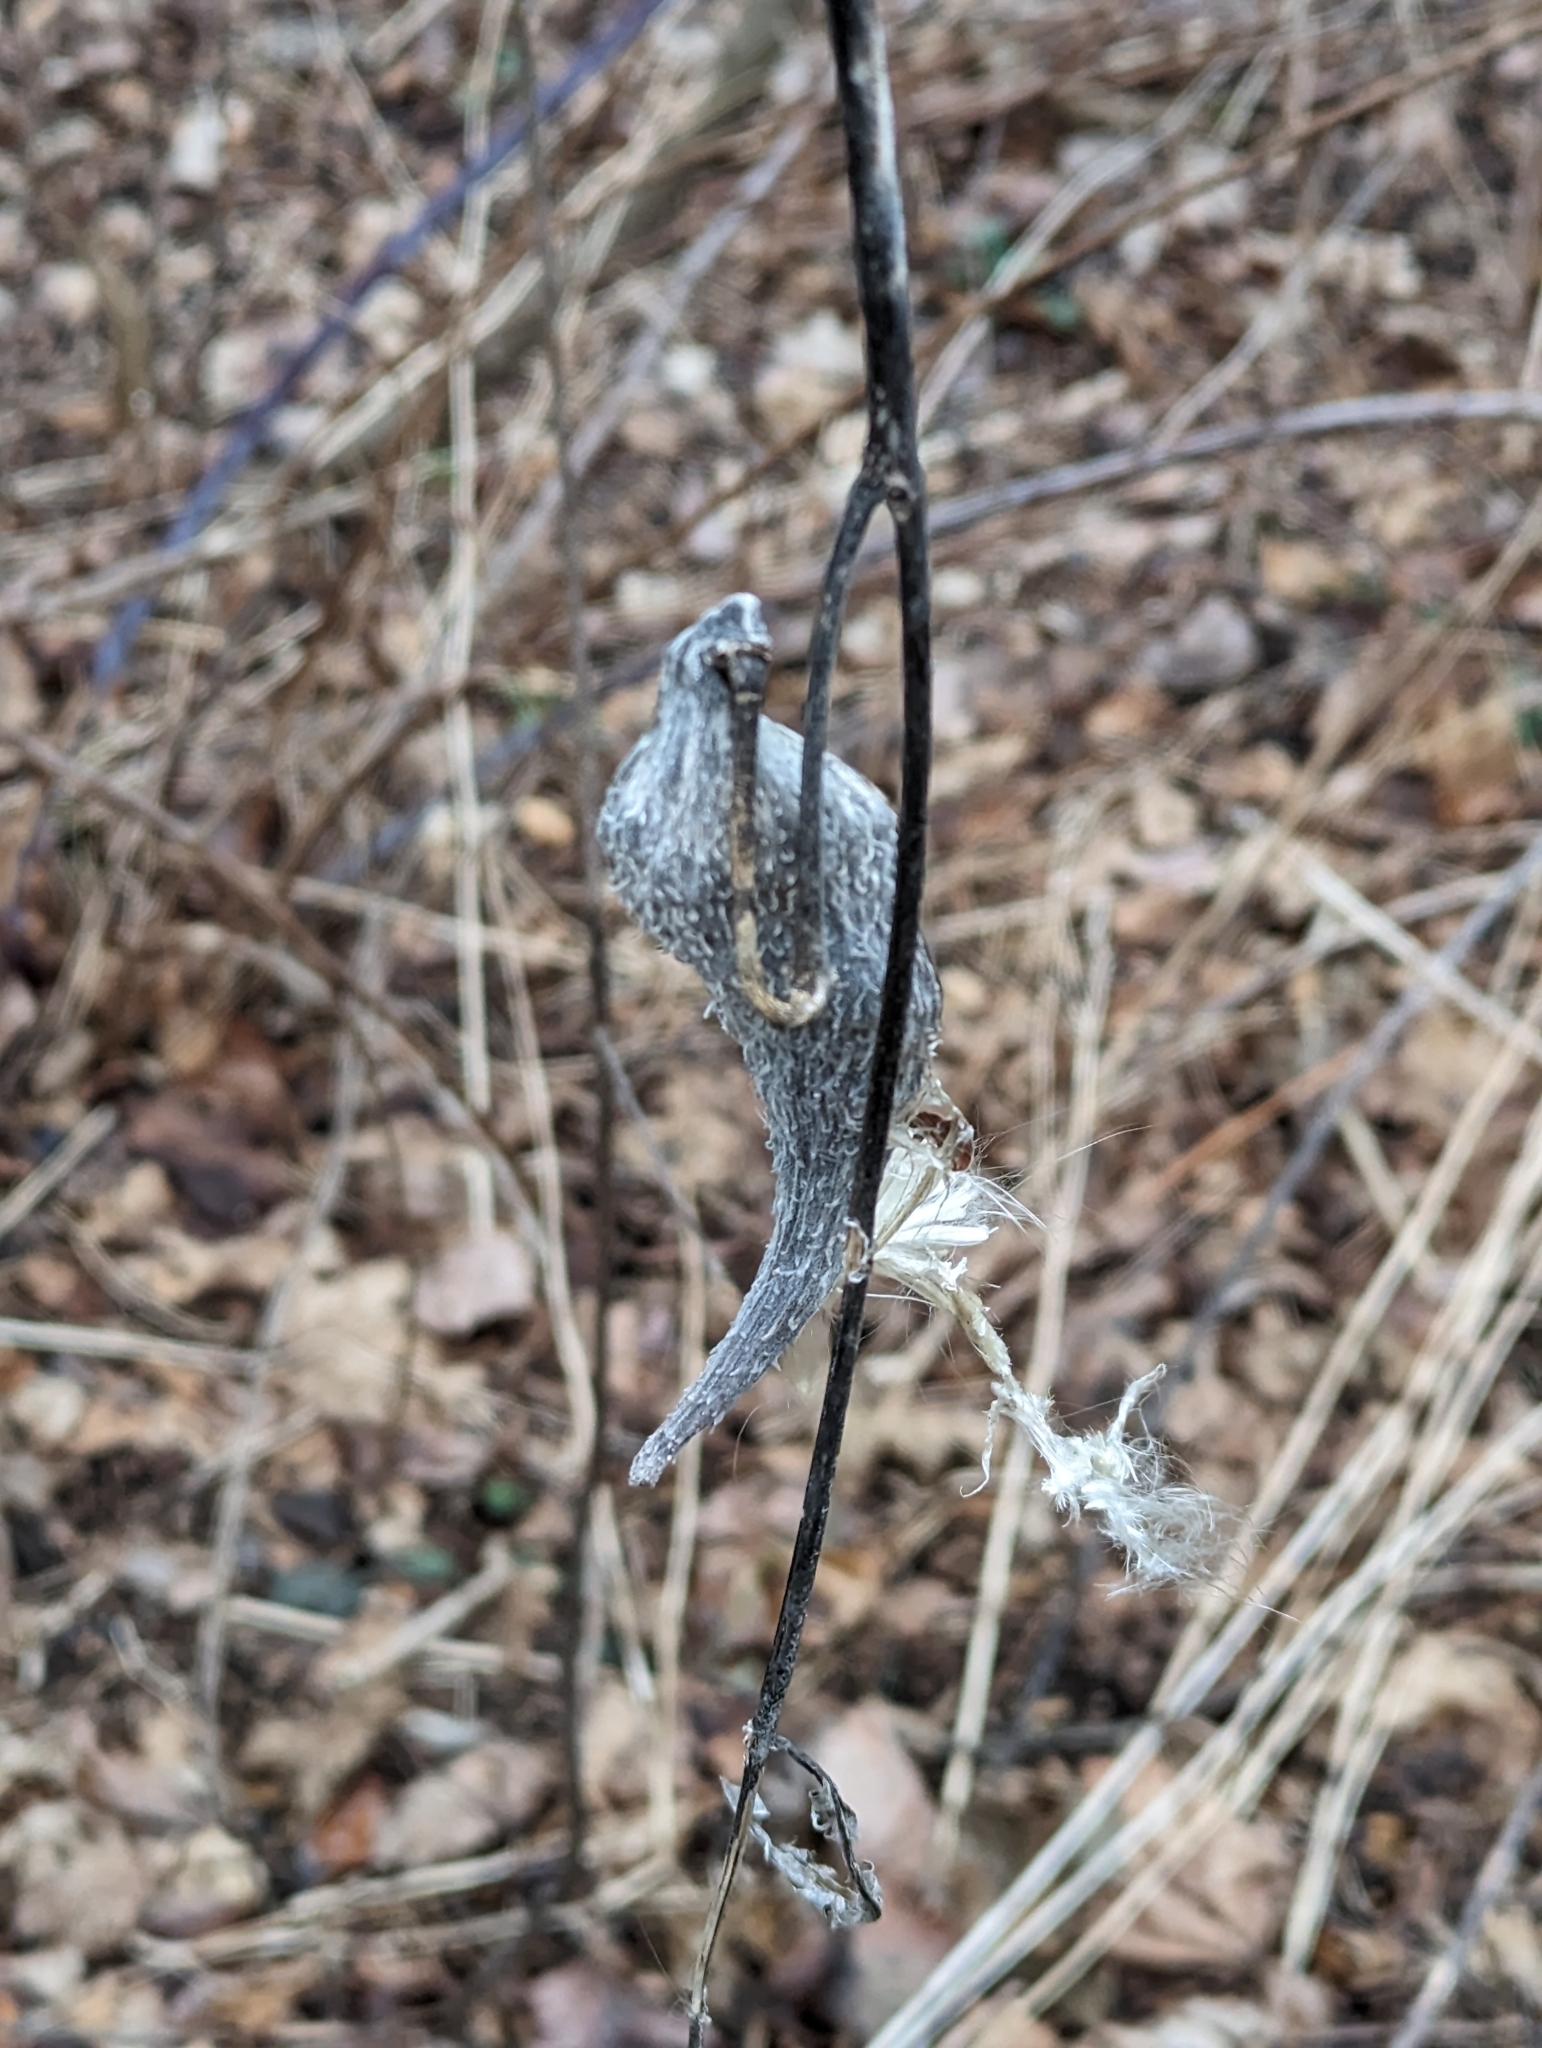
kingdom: Plantae
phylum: Tracheophyta
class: Magnoliopsida
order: Gentianales
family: Apocynaceae
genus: Asclepias
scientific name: Asclepias syriaca
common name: Common milkweed
